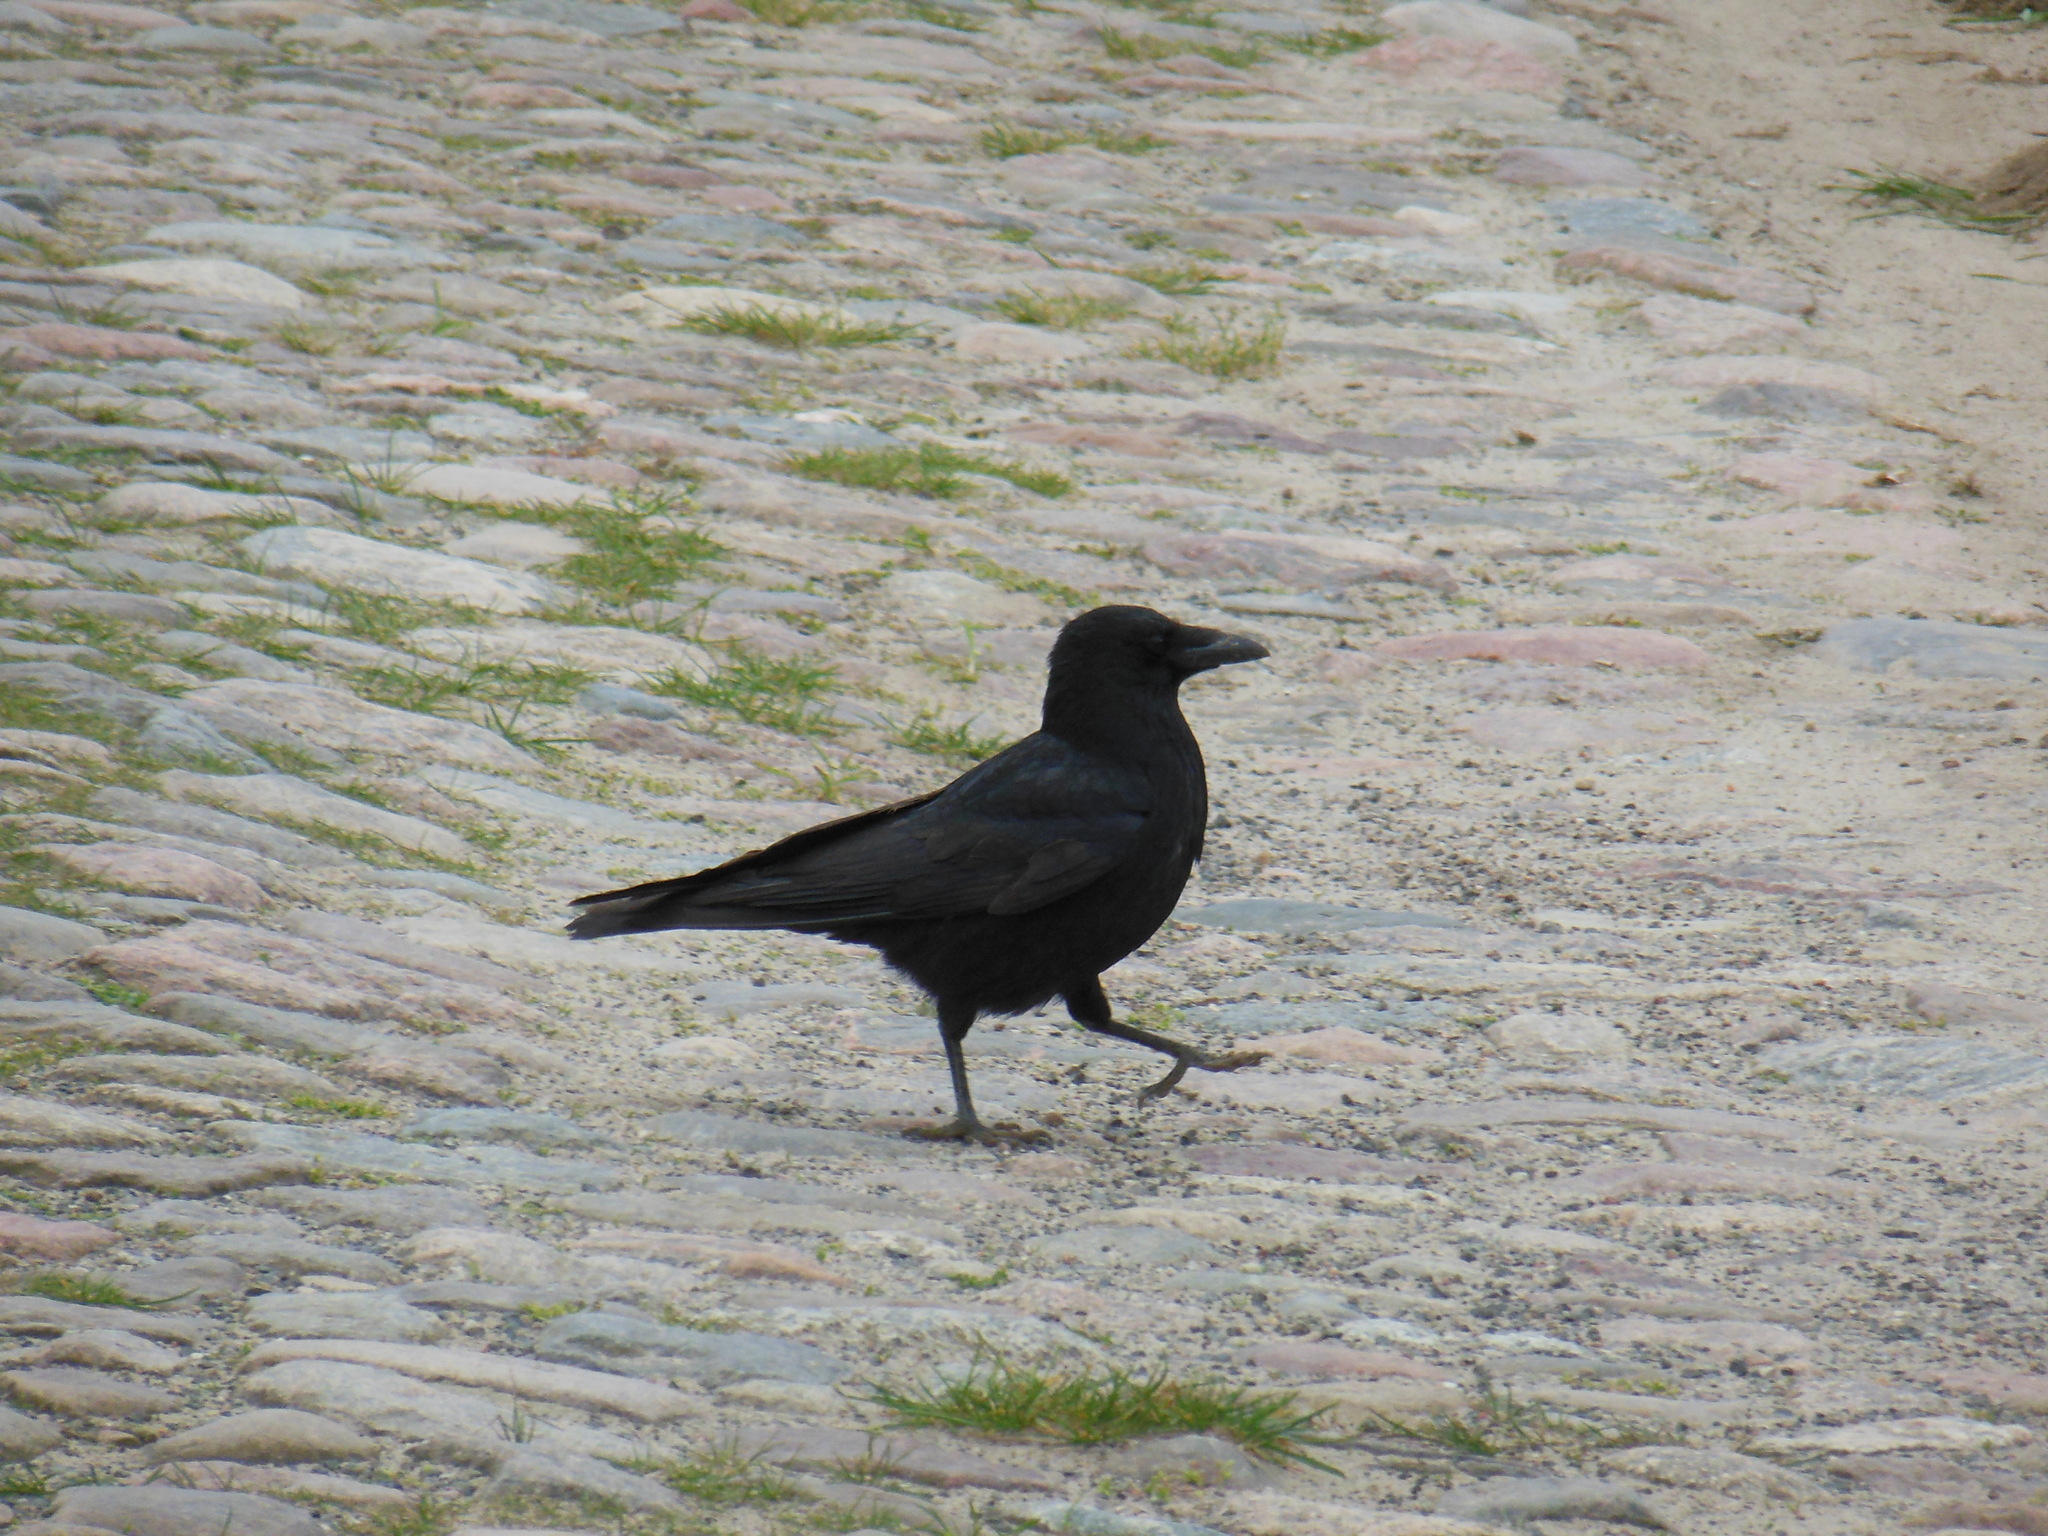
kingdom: Animalia
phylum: Chordata
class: Aves
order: Passeriformes
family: Corvidae
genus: Corvus
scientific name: Corvus corone
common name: Carrion crow
